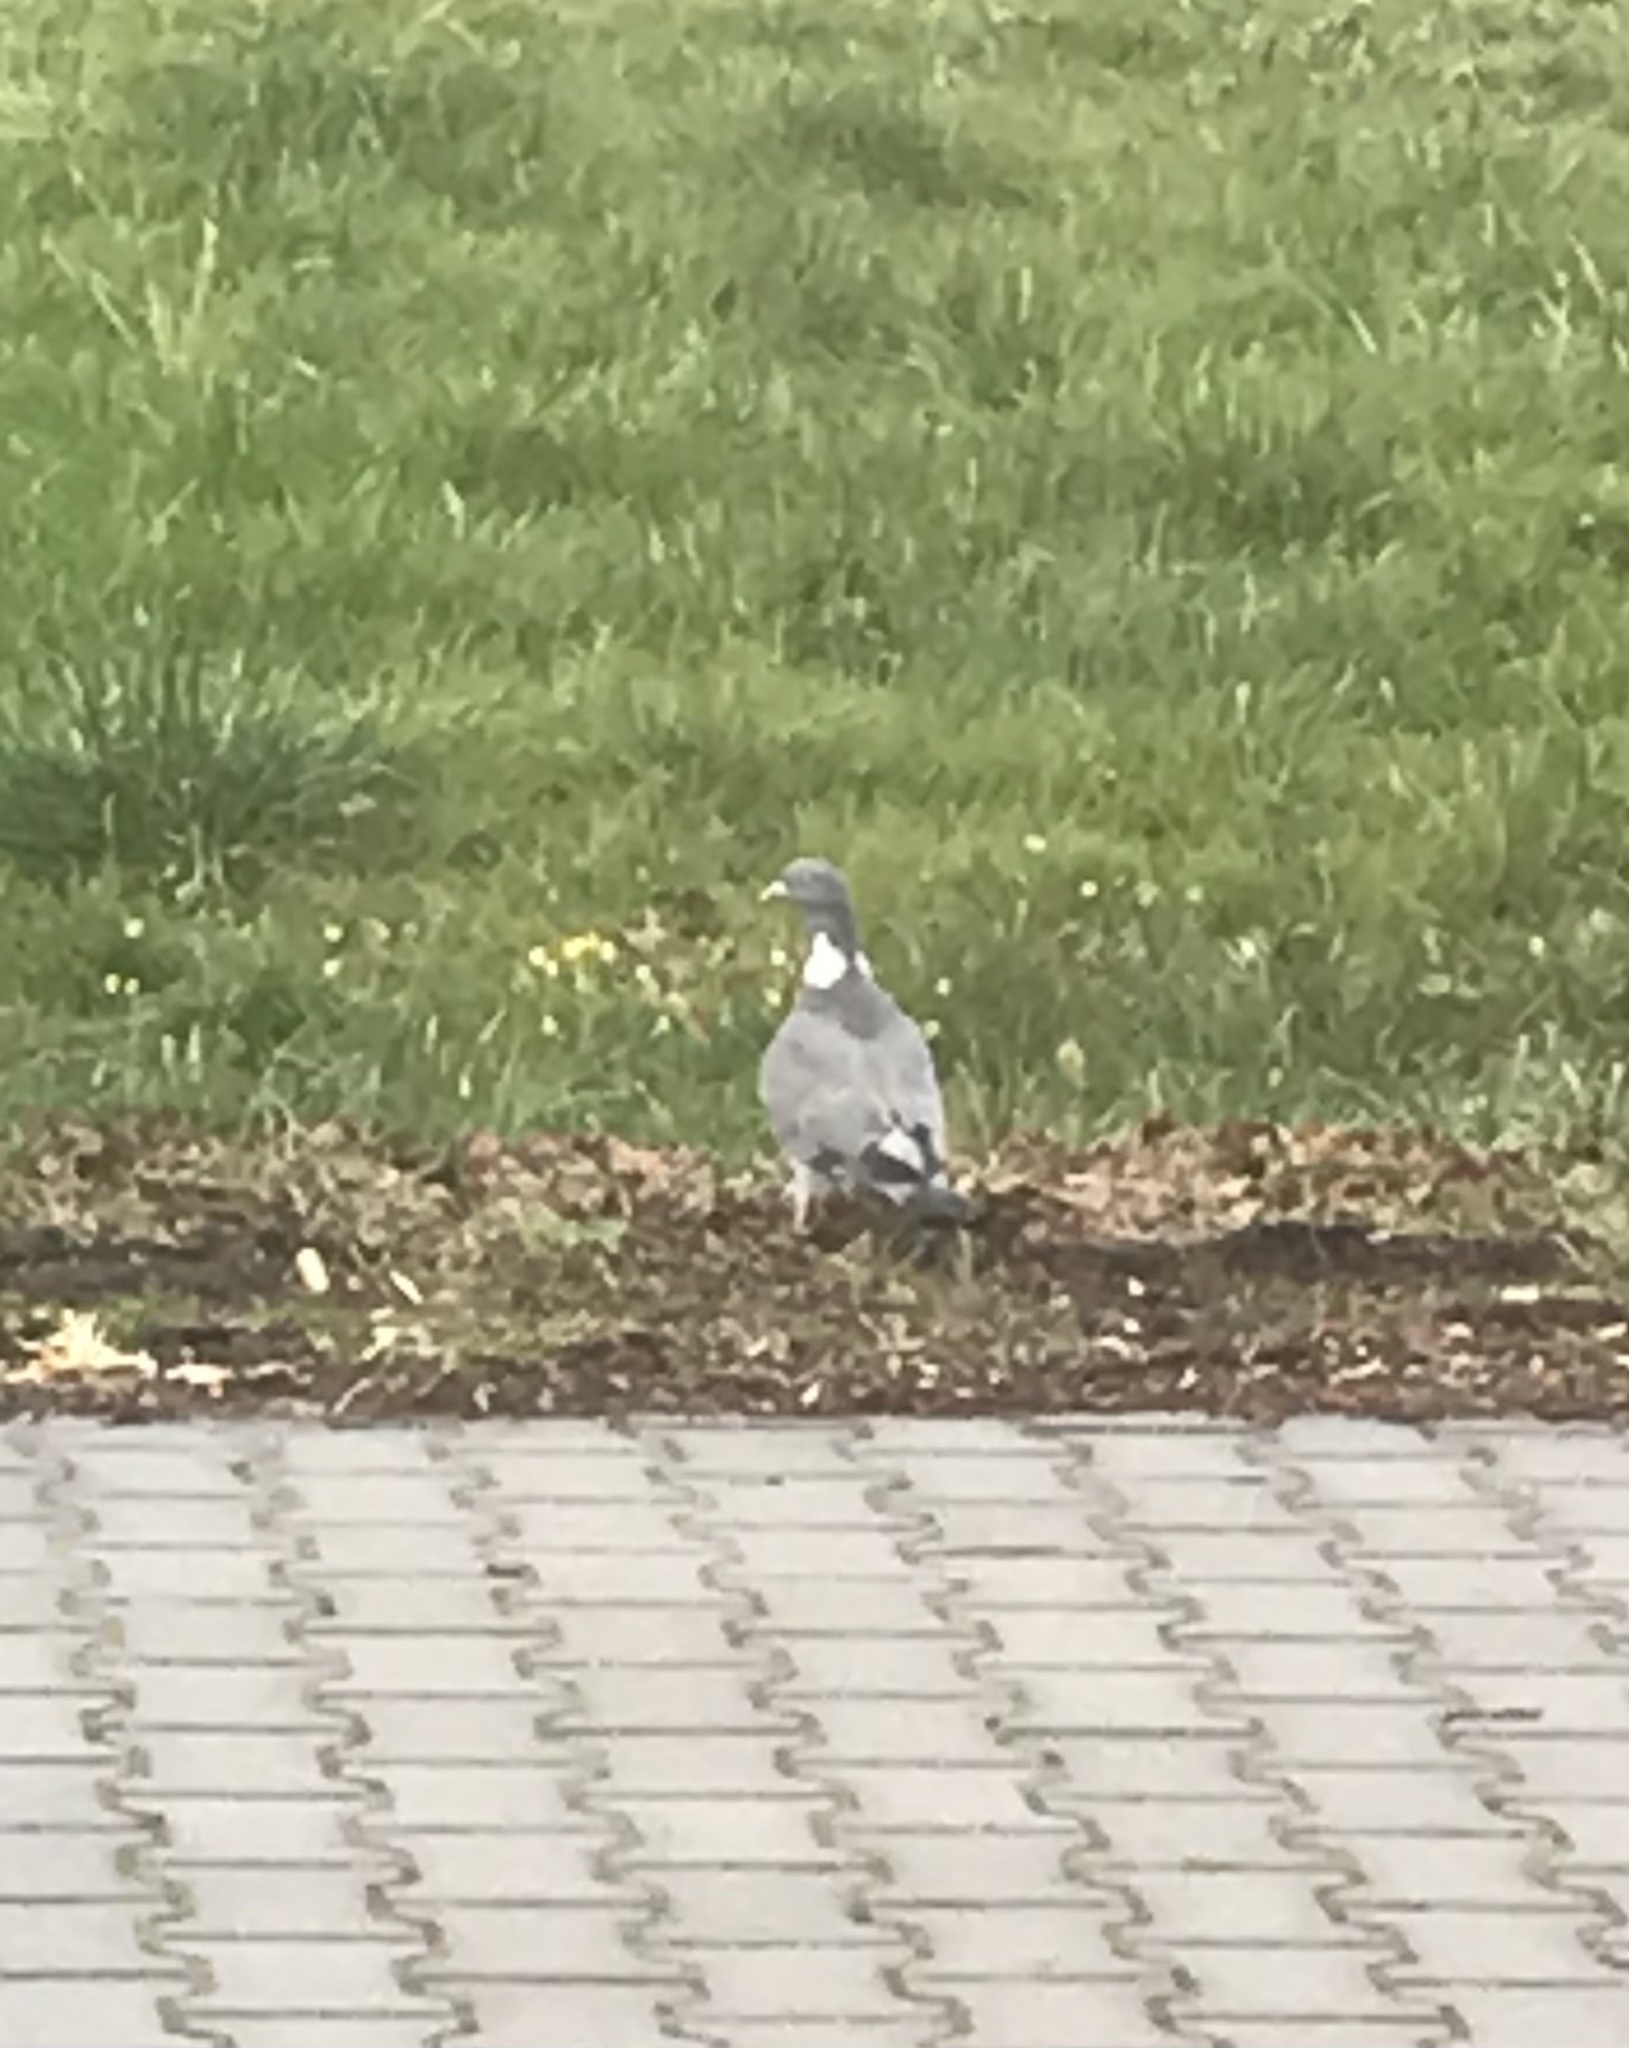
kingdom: Animalia
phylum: Chordata
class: Aves
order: Columbiformes
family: Columbidae
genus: Columba
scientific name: Columba palumbus
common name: Common wood pigeon
